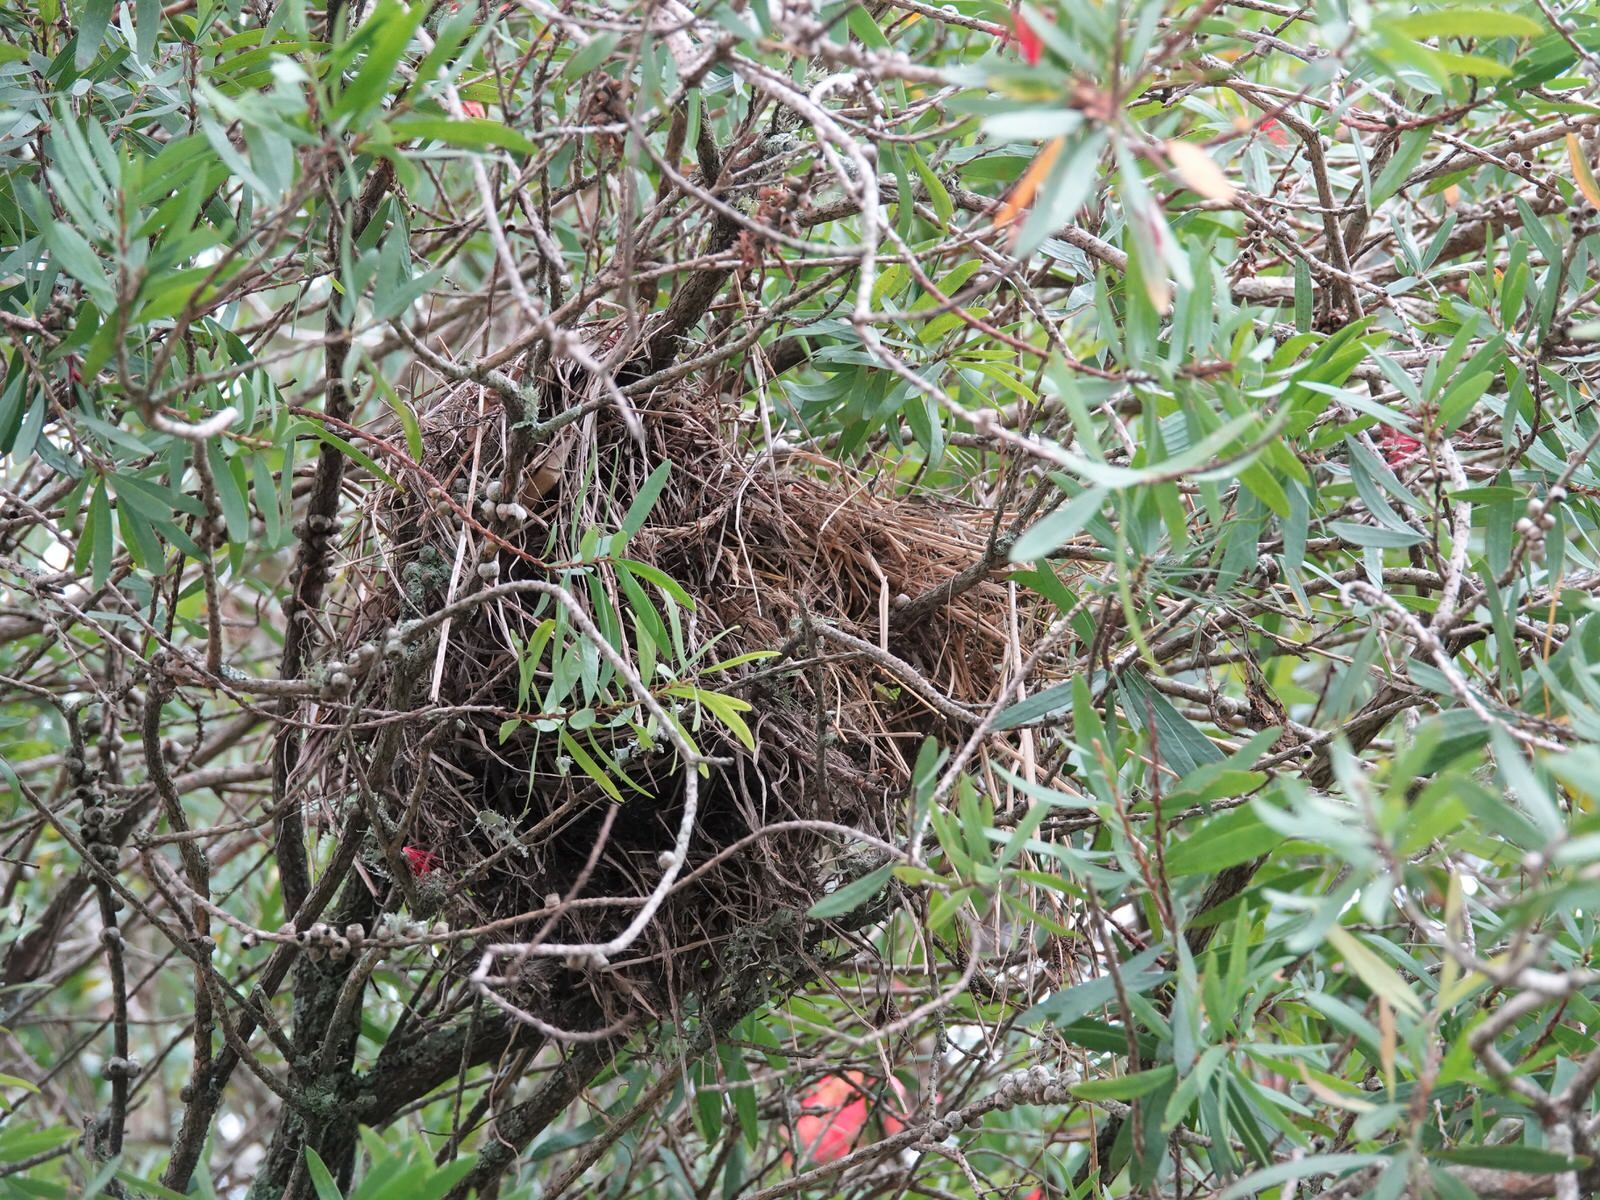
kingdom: Animalia
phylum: Chordata
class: Aves
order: Passeriformes
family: Passeridae
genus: Passer
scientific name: Passer domesticus
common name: House sparrow
